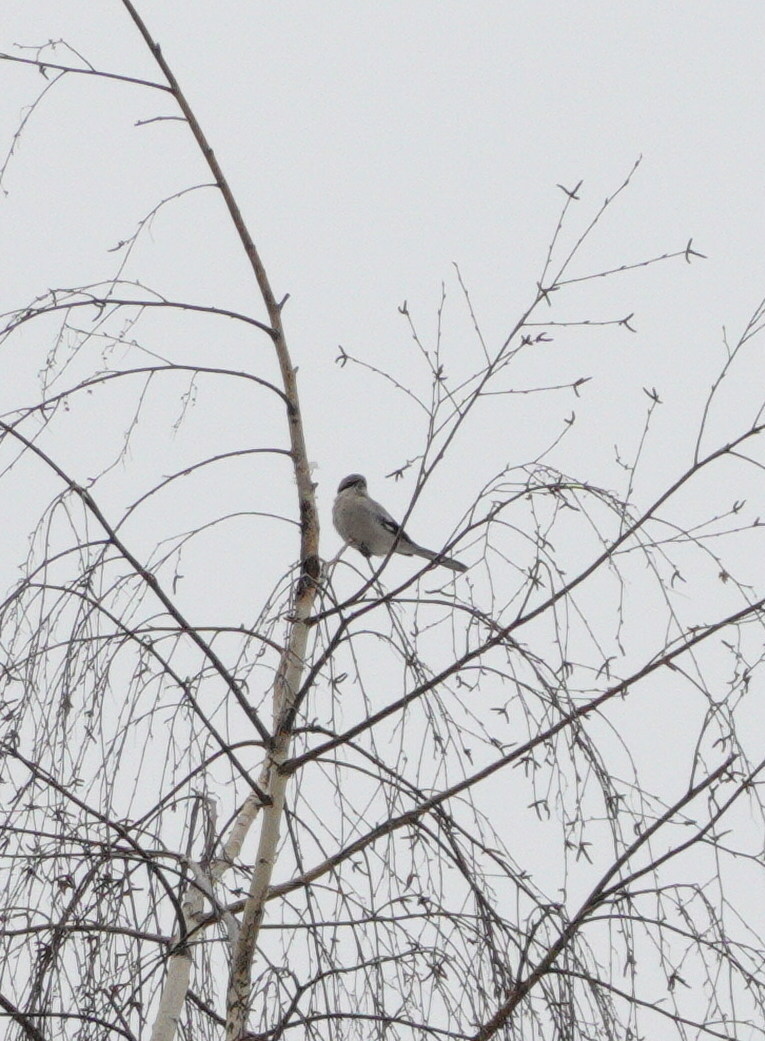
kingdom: Animalia
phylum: Chordata
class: Aves
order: Passeriformes
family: Laniidae
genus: Lanius
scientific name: Lanius excubitor
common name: Great grey shrike
